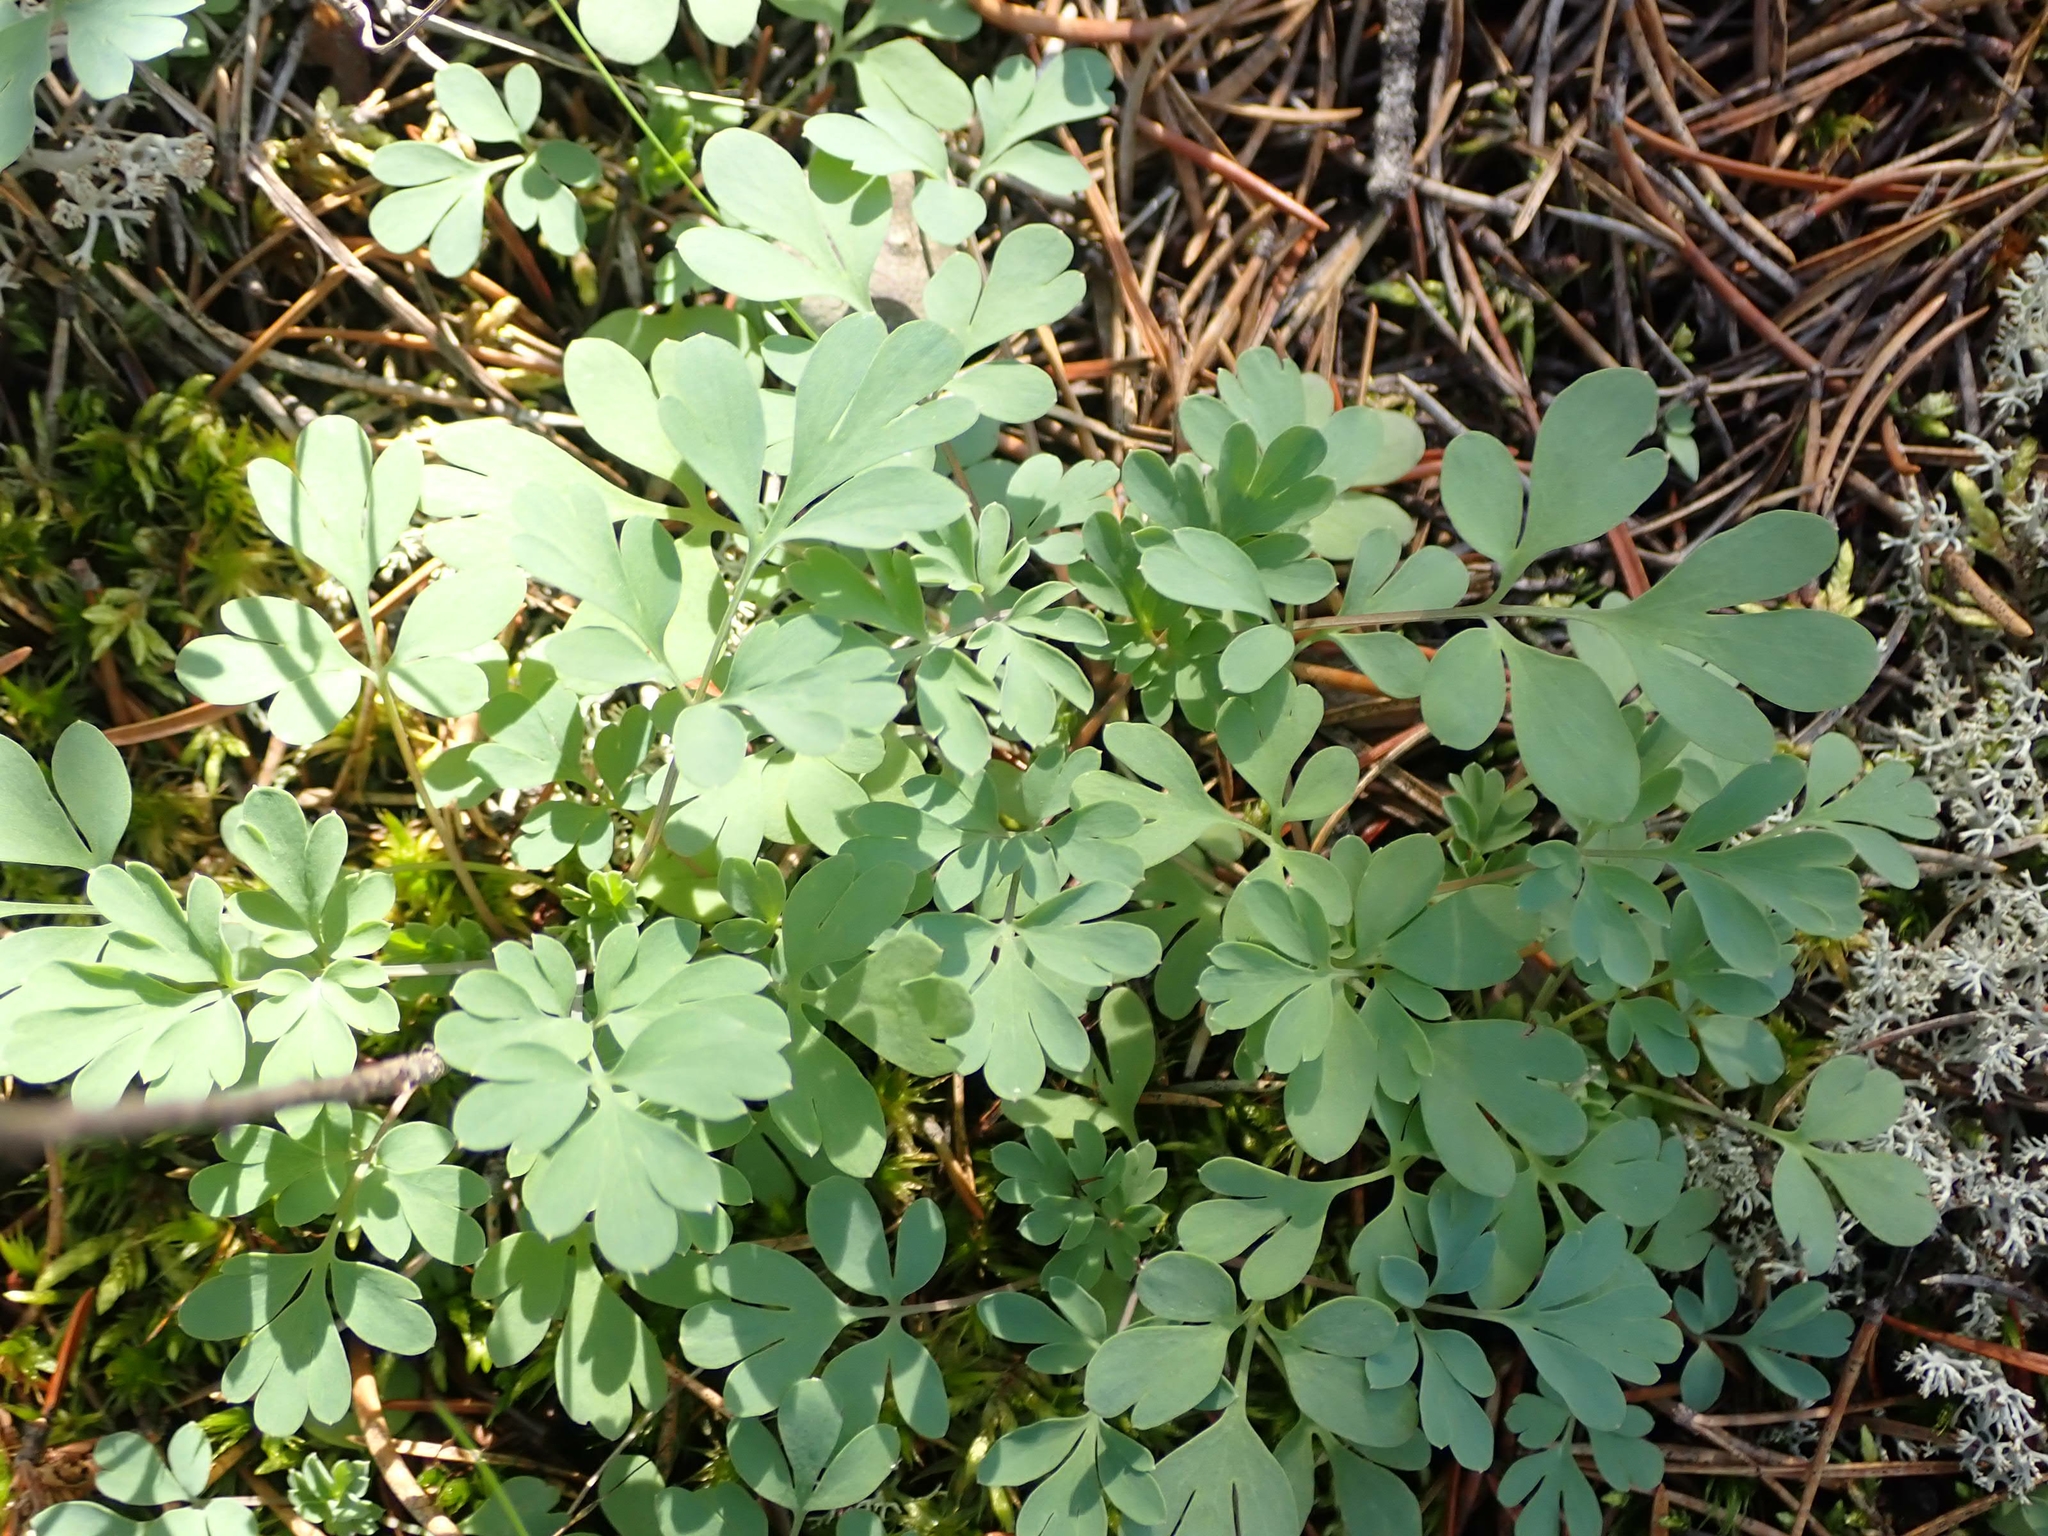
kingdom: Plantae
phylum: Tracheophyta
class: Magnoliopsida
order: Ranunculales
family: Papaveraceae
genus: Capnoides
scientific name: Capnoides sempervirens
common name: Rock harlequin
